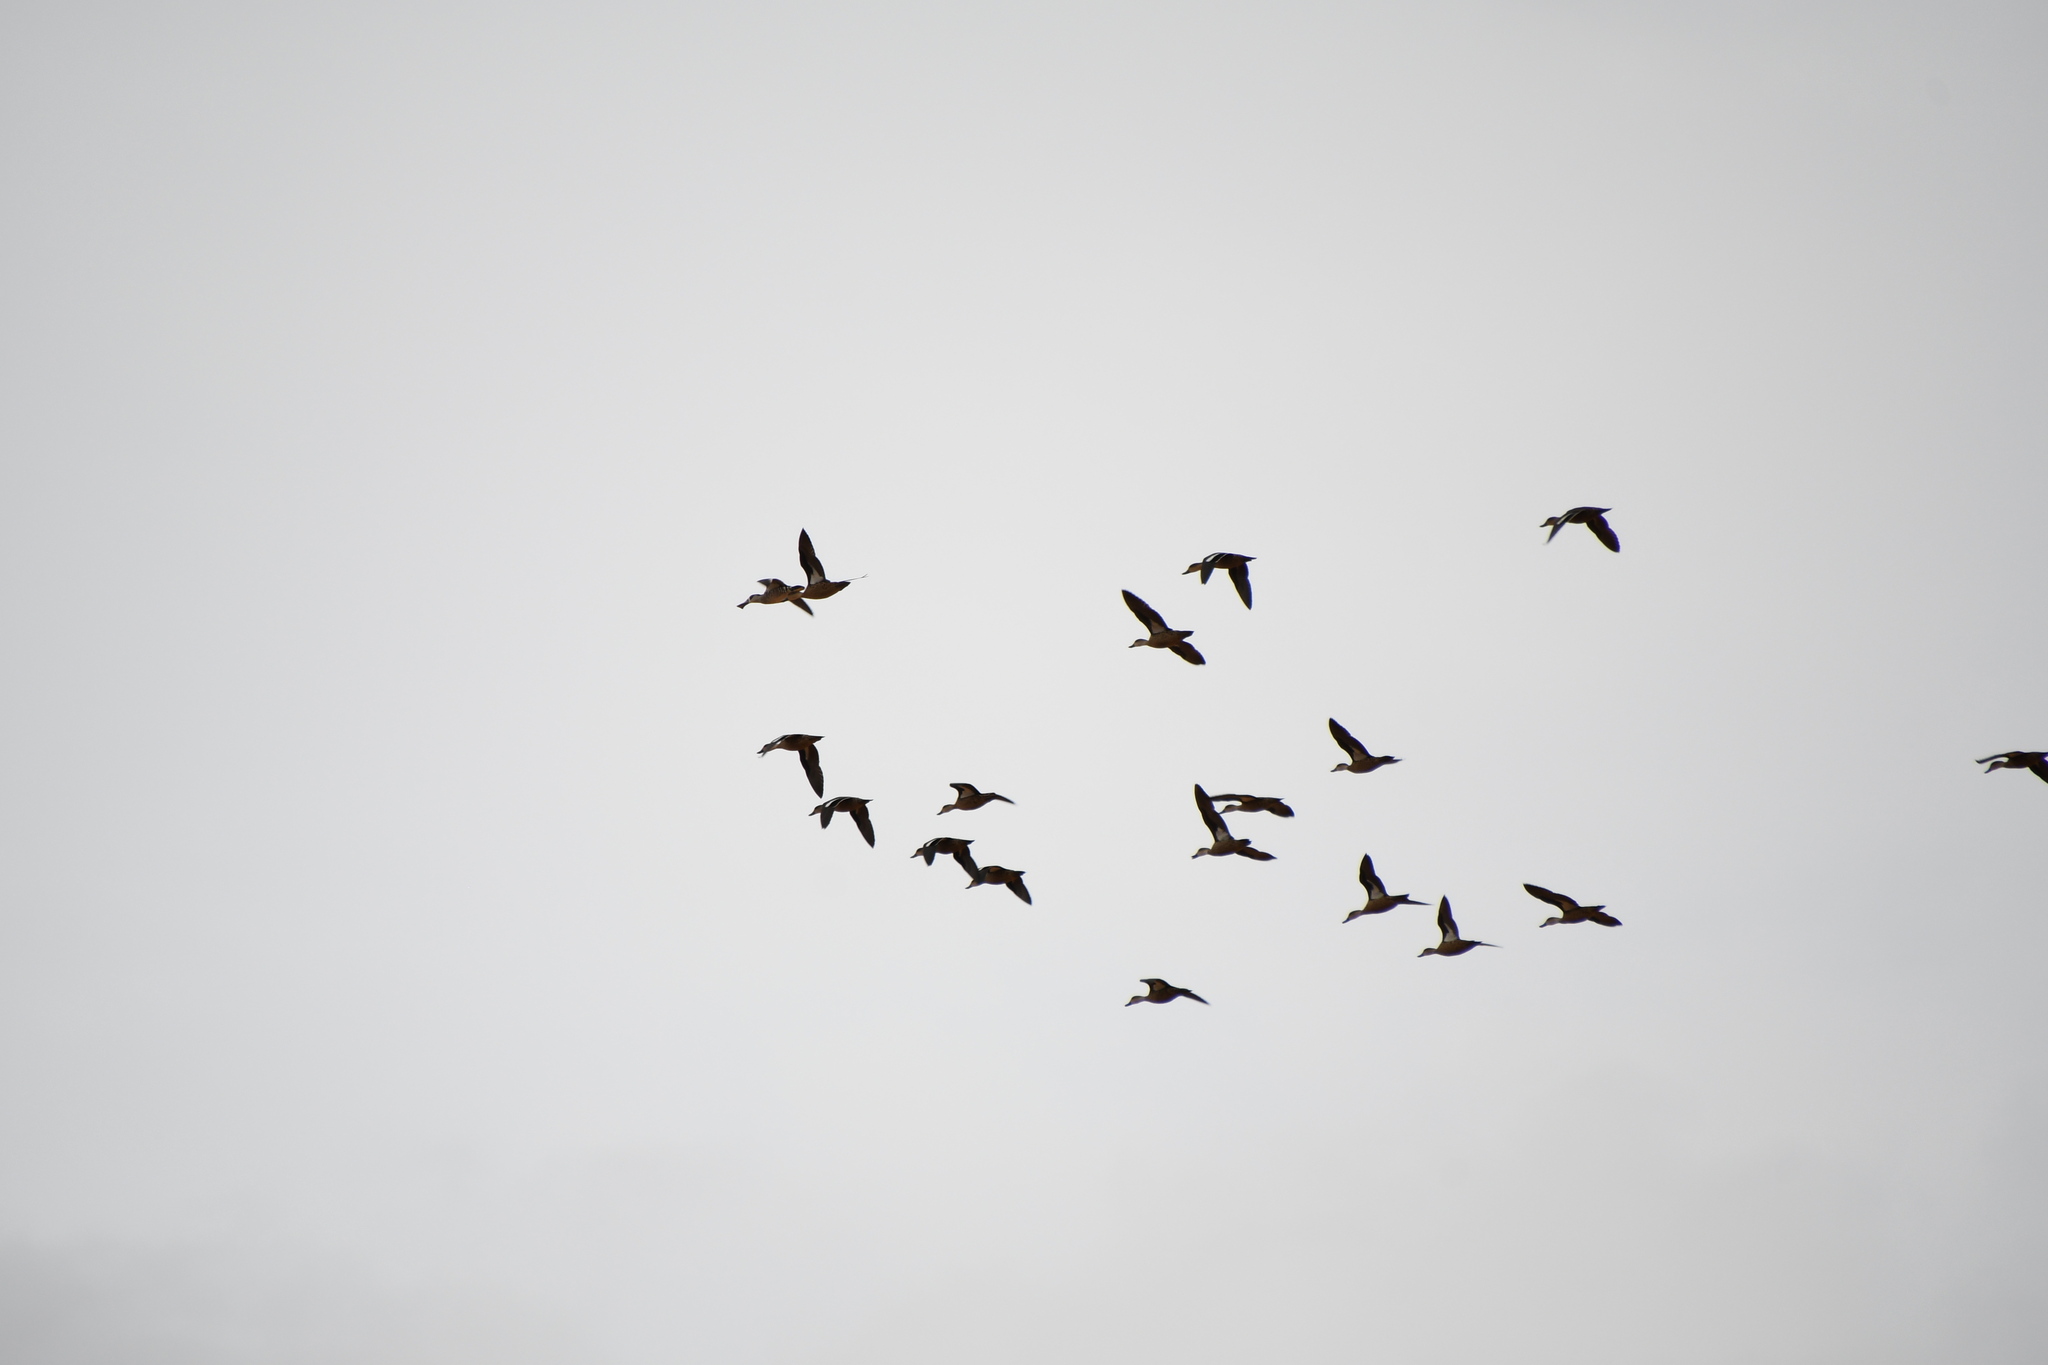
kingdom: Animalia
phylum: Chordata
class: Aves
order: Anseriformes
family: Anatidae
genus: Anas
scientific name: Anas gracilis
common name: Grey teal
